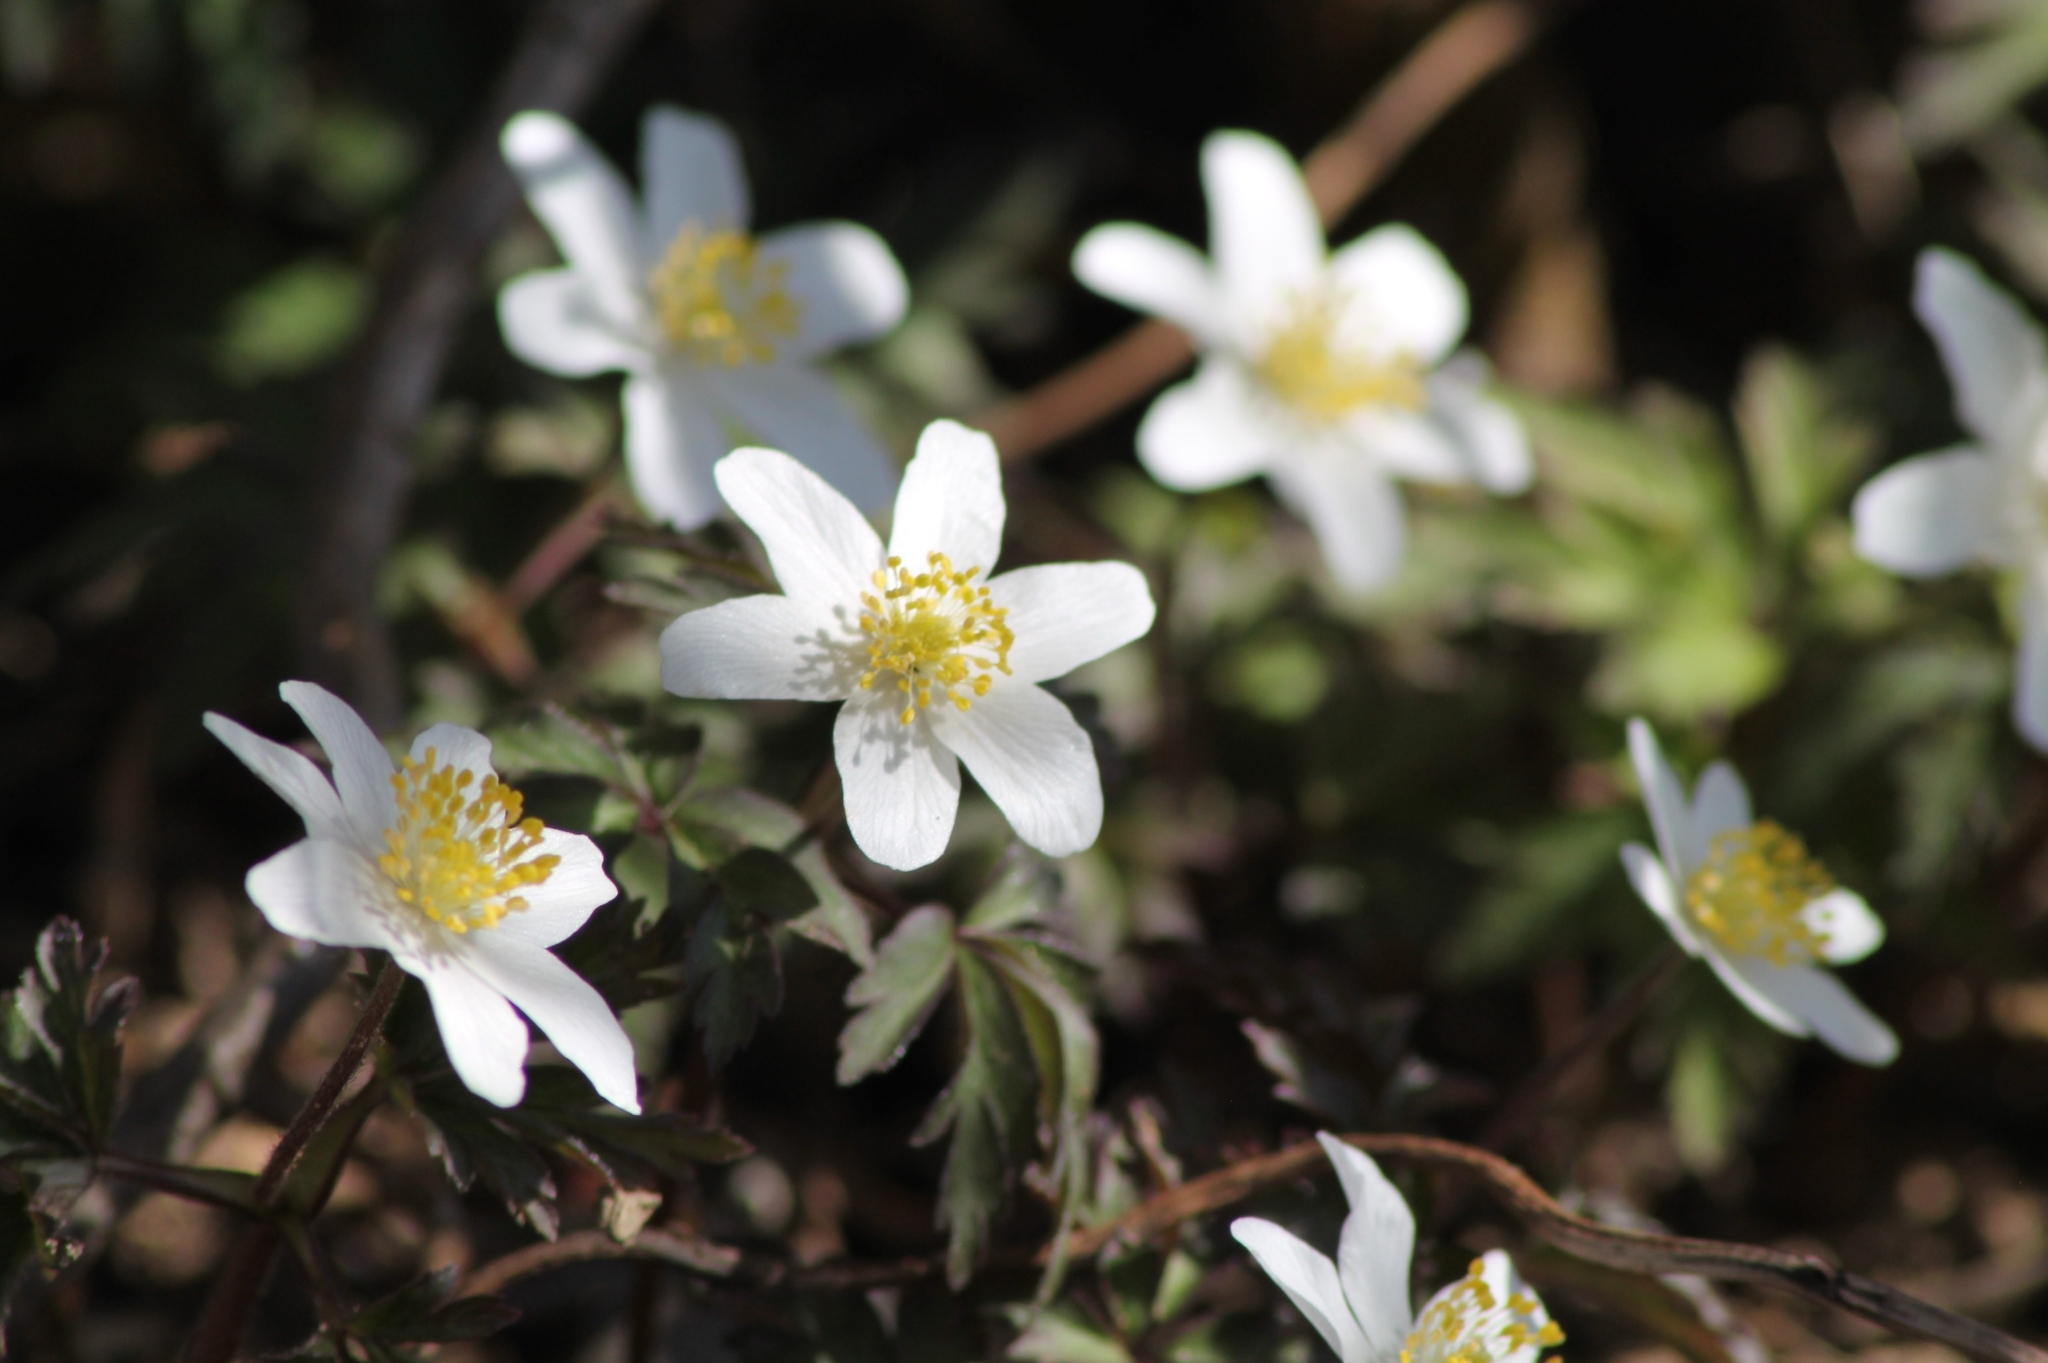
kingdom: Plantae
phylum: Tracheophyta
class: Magnoliopsida
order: Ranunculales
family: Ranunculaceae
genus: Anemone
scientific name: Anemone nemorosa
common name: Wood anemone
